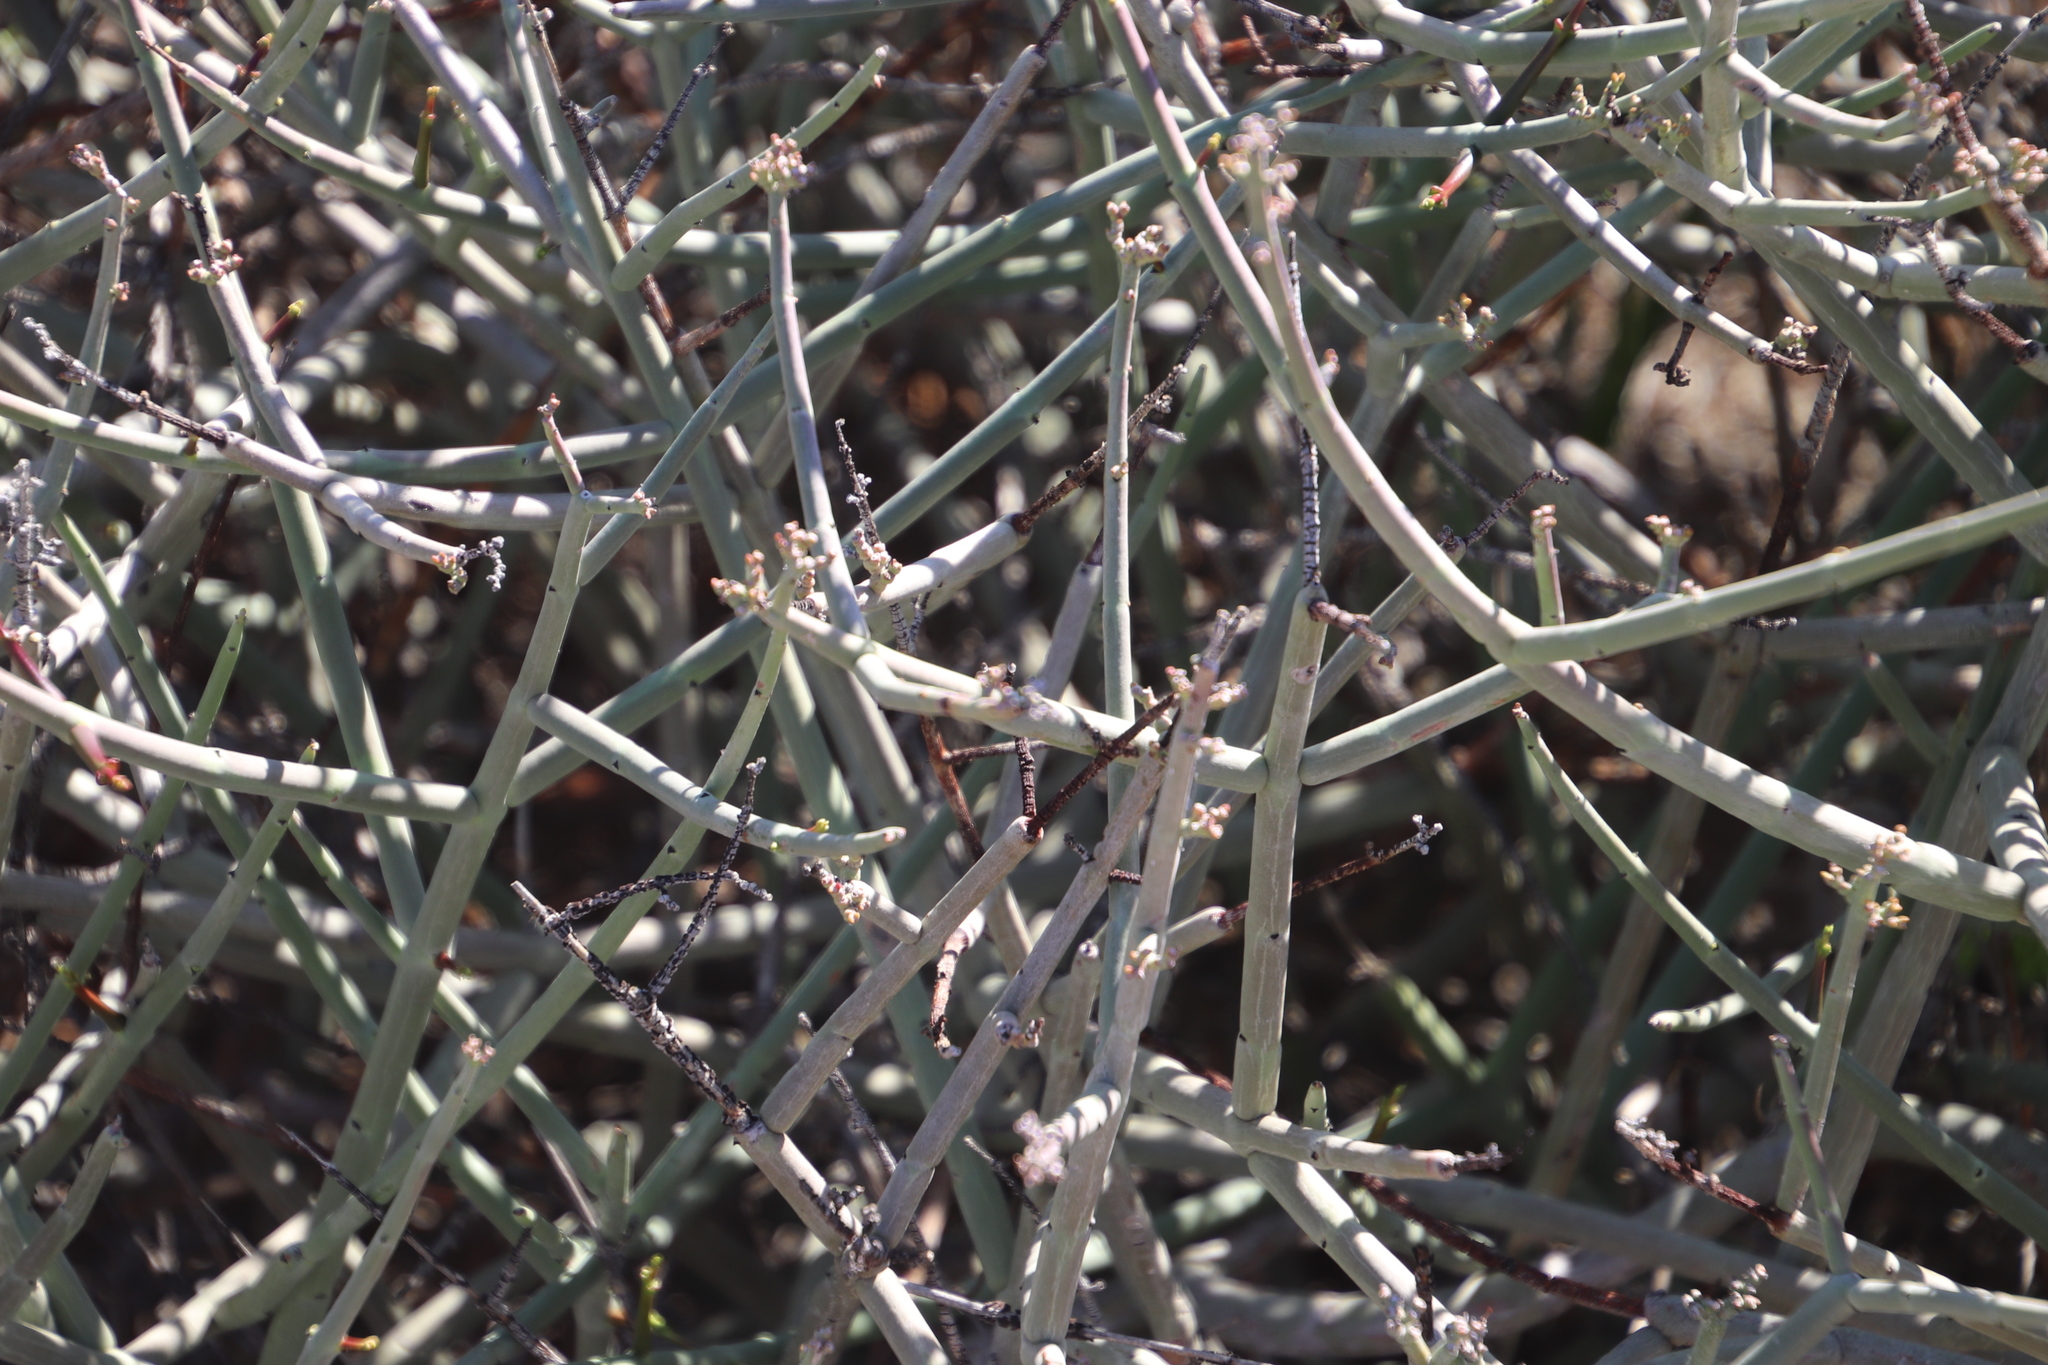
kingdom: Plantae
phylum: Tracheophyta
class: Magnoliopsida
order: Gentianales
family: Apocynaceae
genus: Cynanchum
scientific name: Cynanchum viminale
